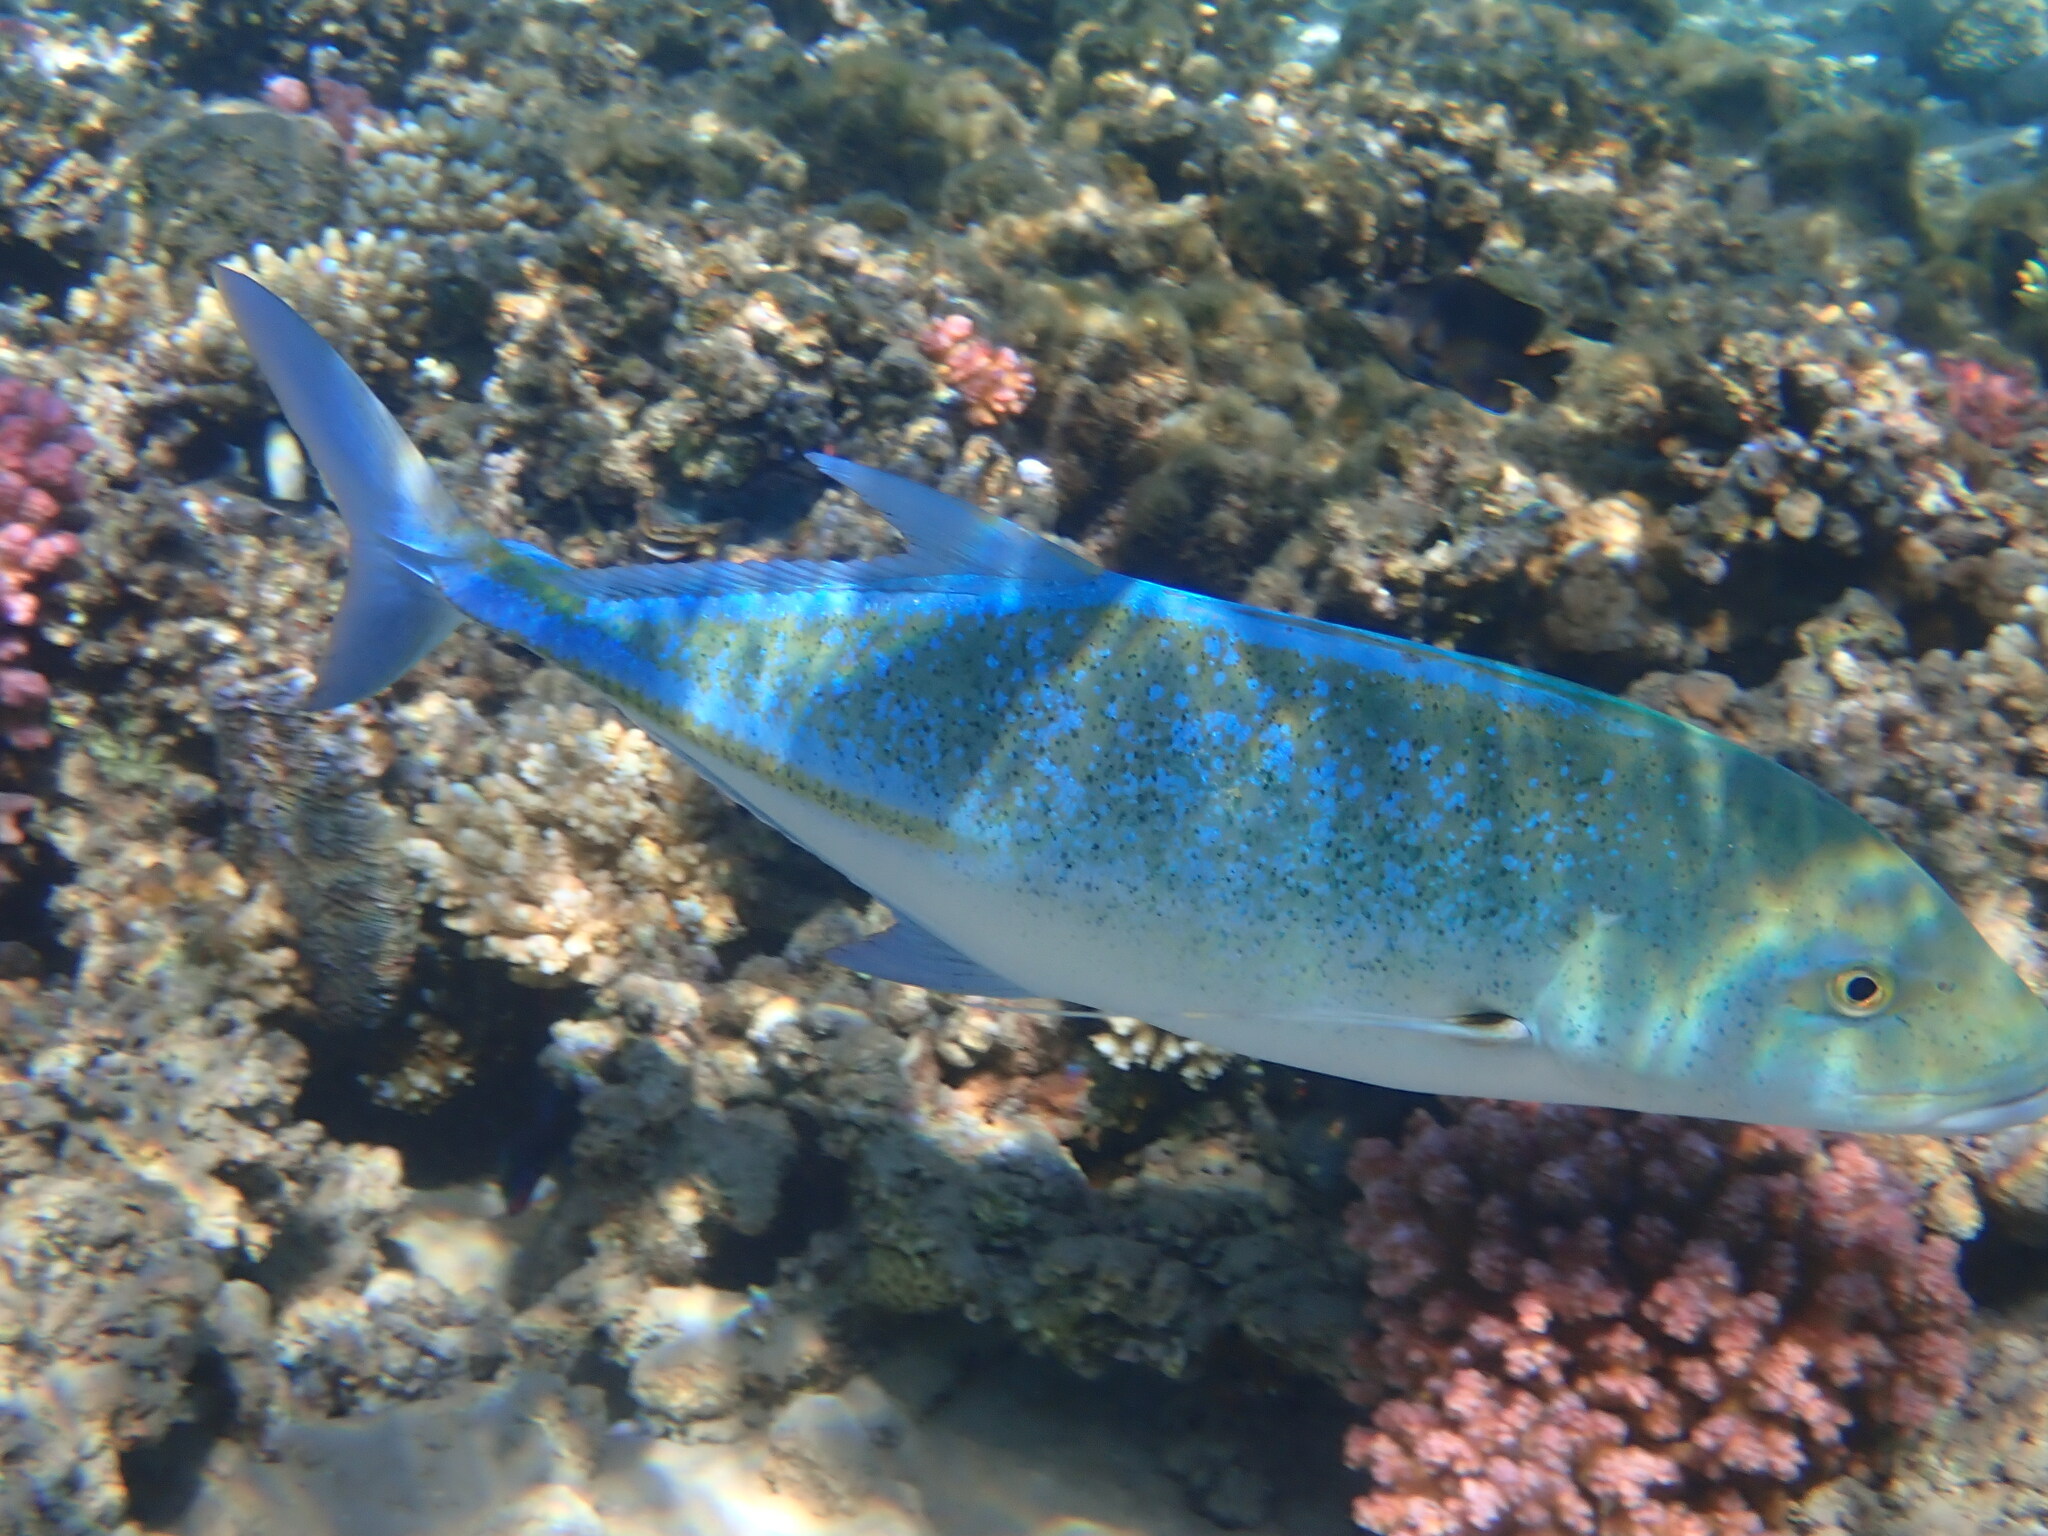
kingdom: Animalia
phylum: Chordata
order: Perciformes
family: Carangidae
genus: Caranx
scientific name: Caranx melampygus
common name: Bluefin trevally
